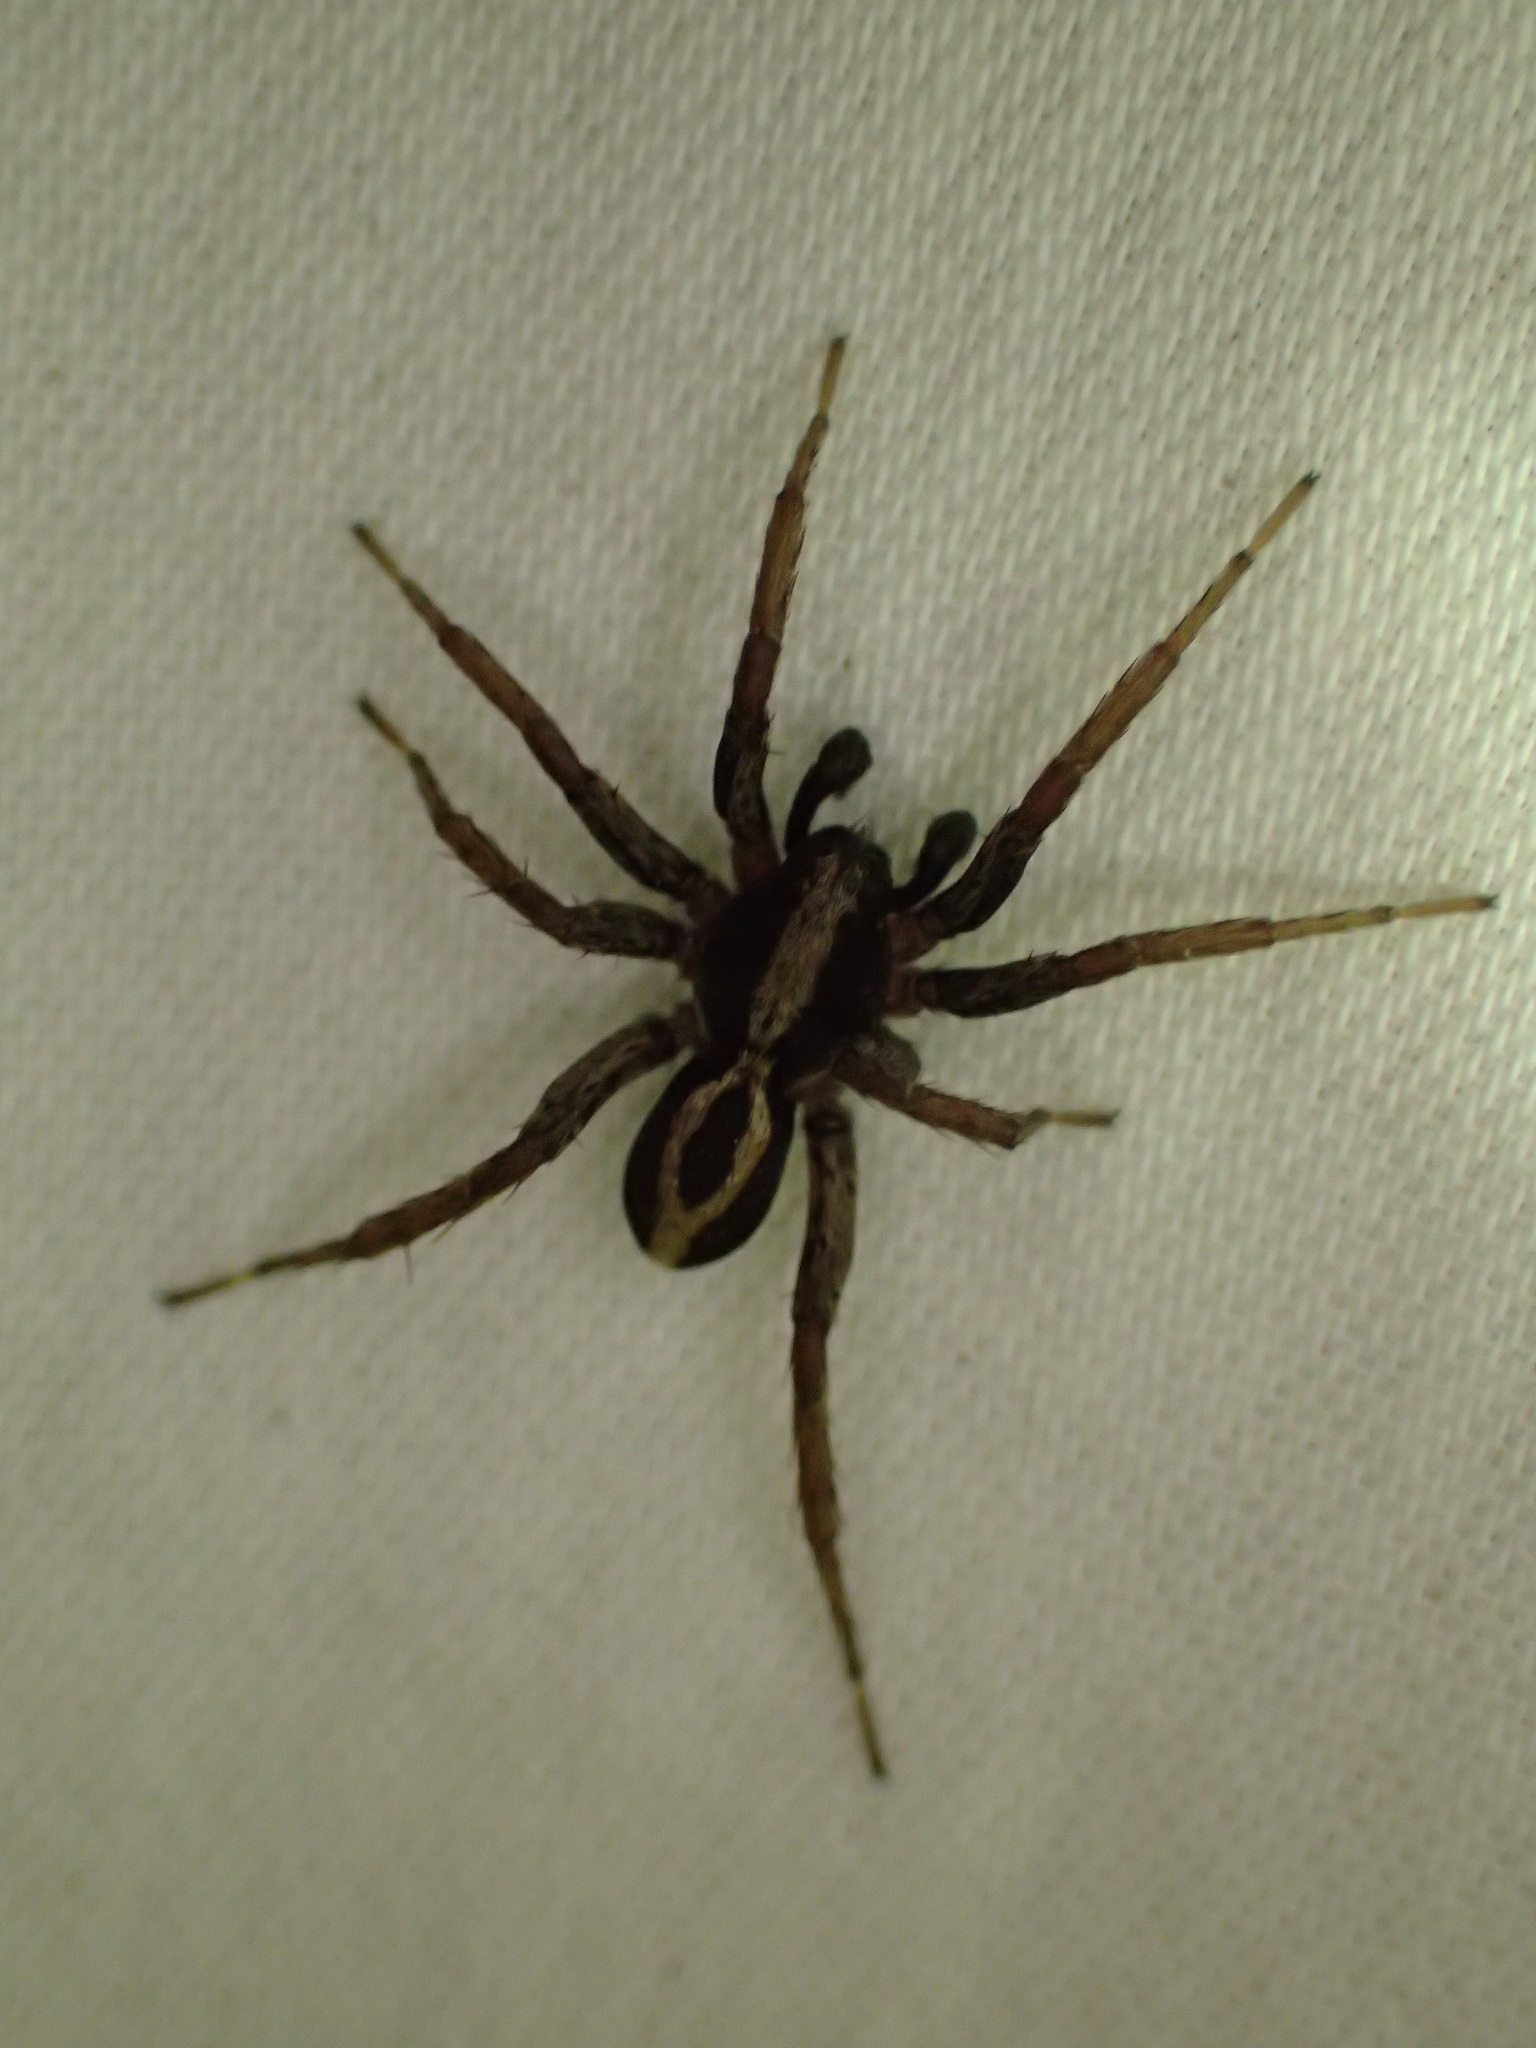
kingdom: Animalia
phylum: Arthropoda
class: Arachnida
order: Araneae
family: Lycosidae
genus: Alopecosa
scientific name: Alopecosa albofasciata
